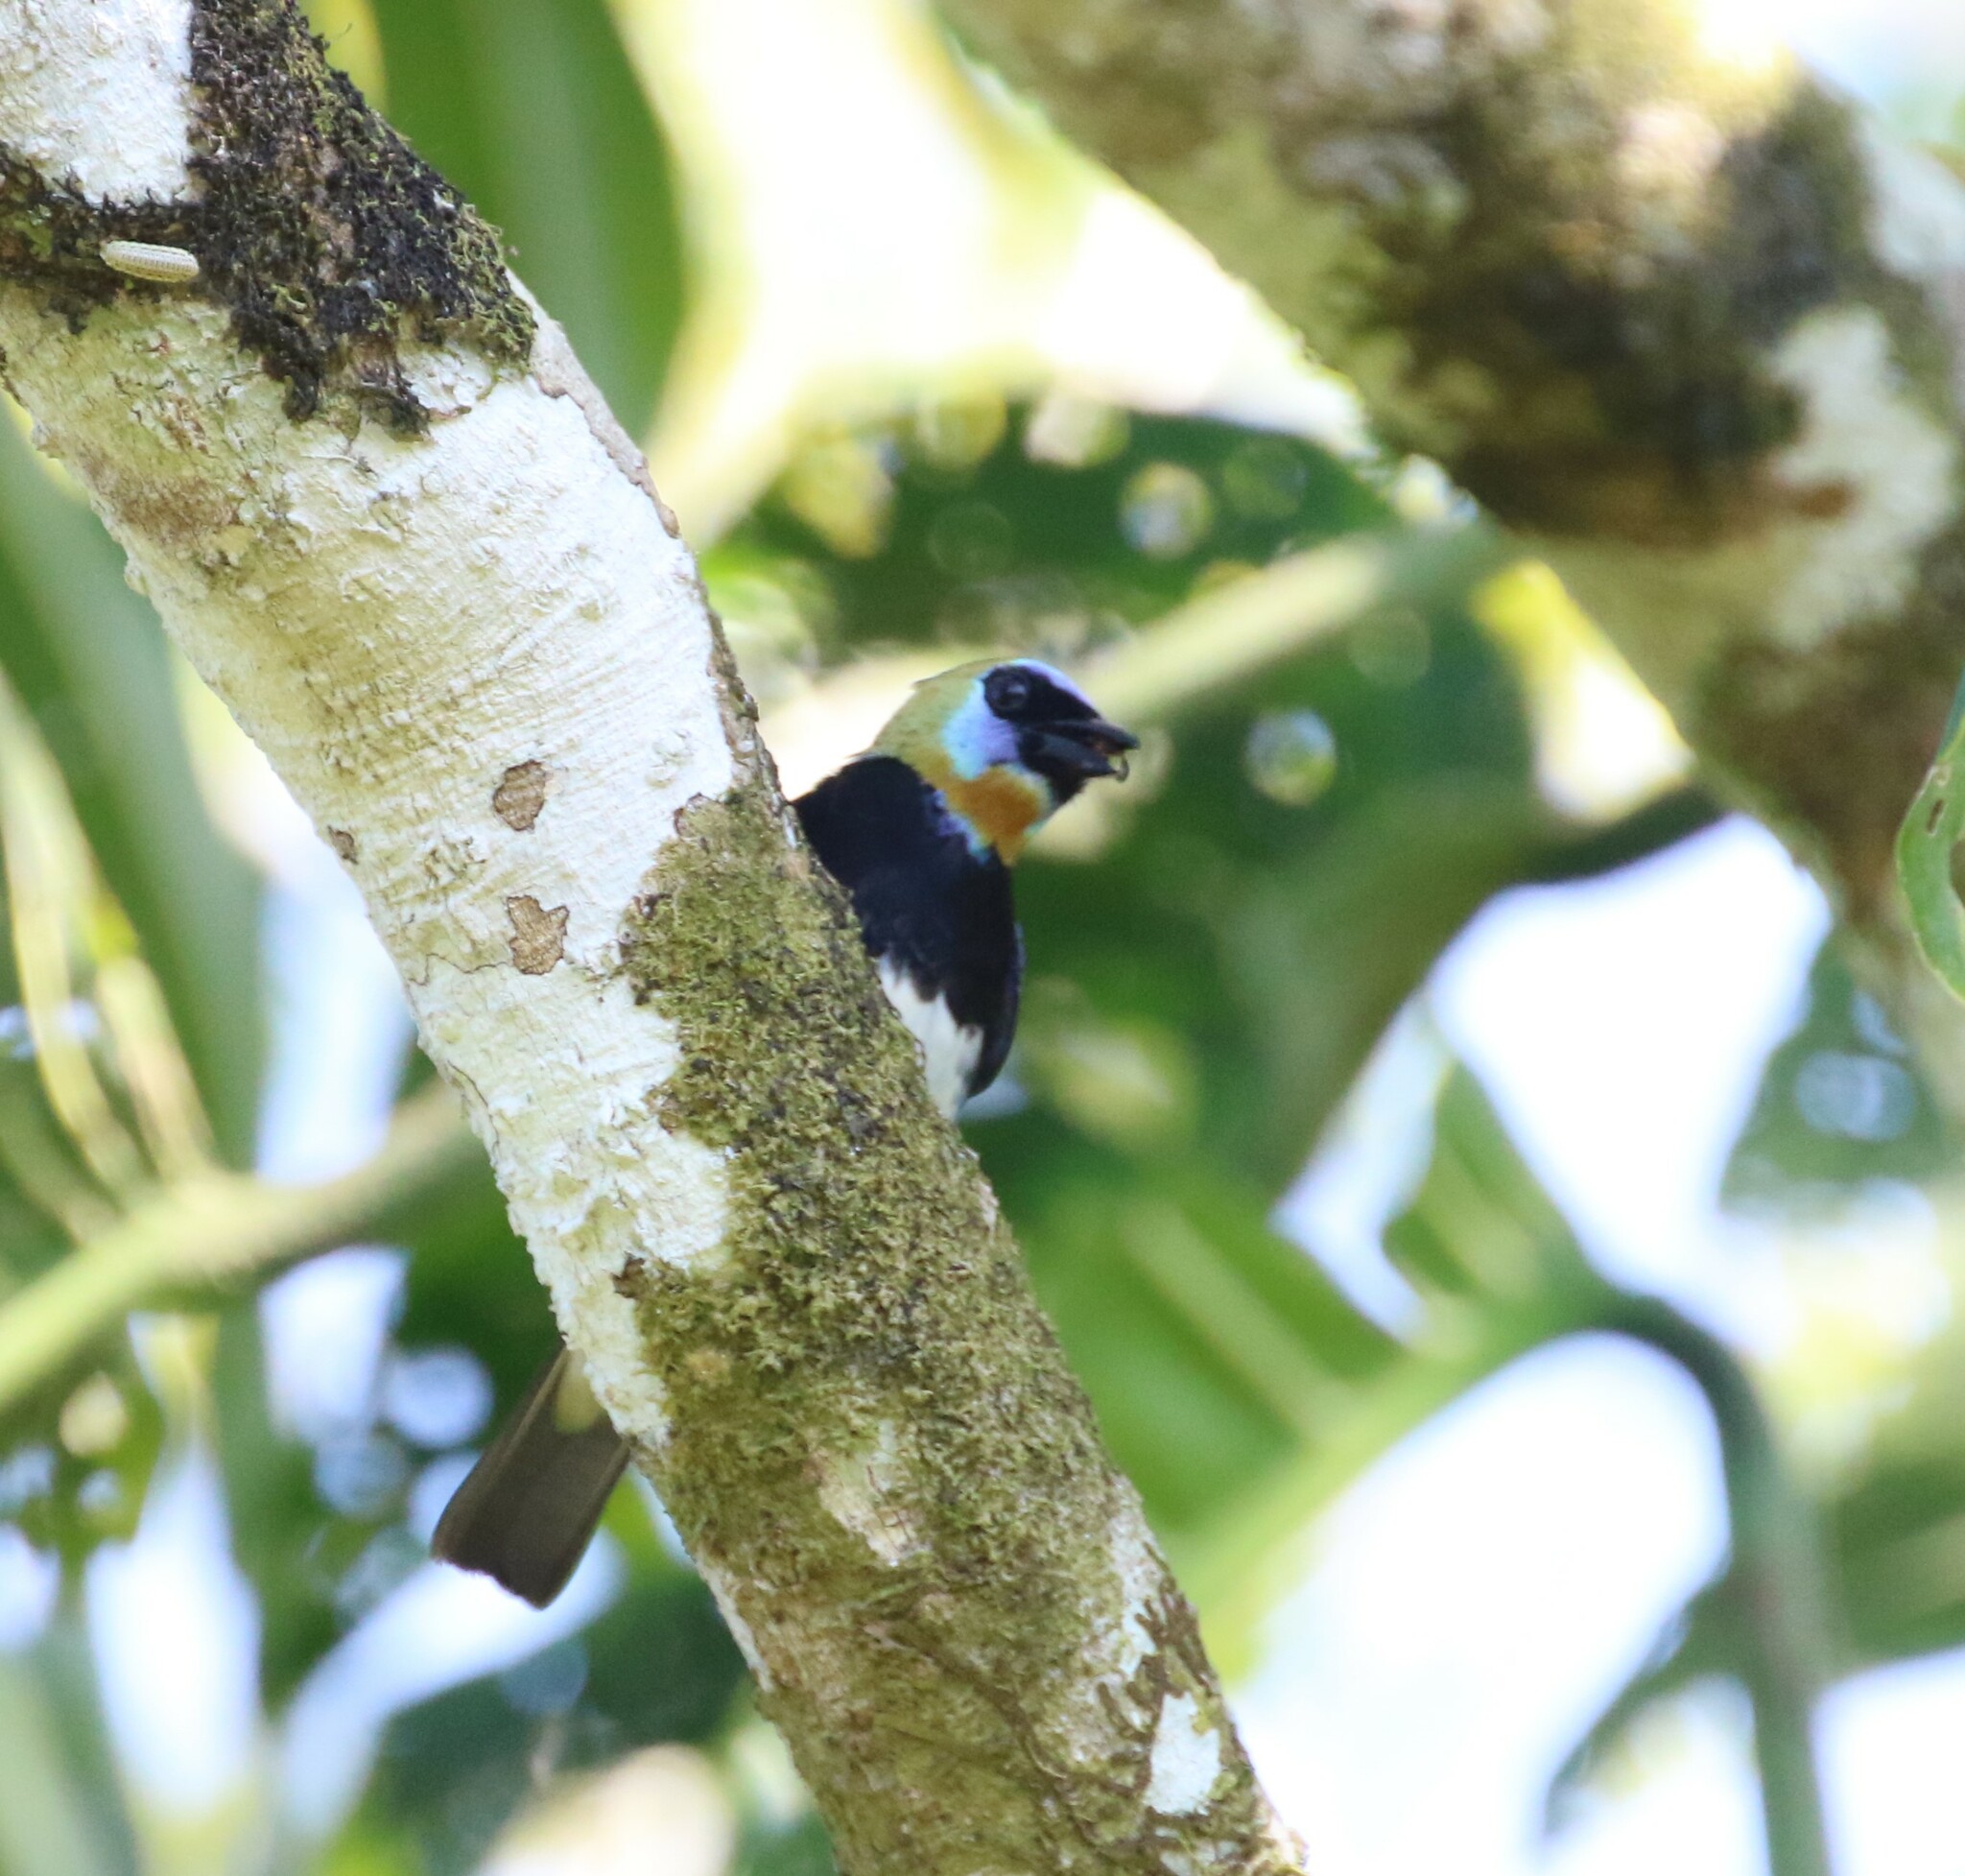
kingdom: Animalia
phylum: Chordata
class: Aves
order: Passeriformes
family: Thraupidae
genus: Stilpnia
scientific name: Stilpnia larvata
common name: Golden-hooded tanager
